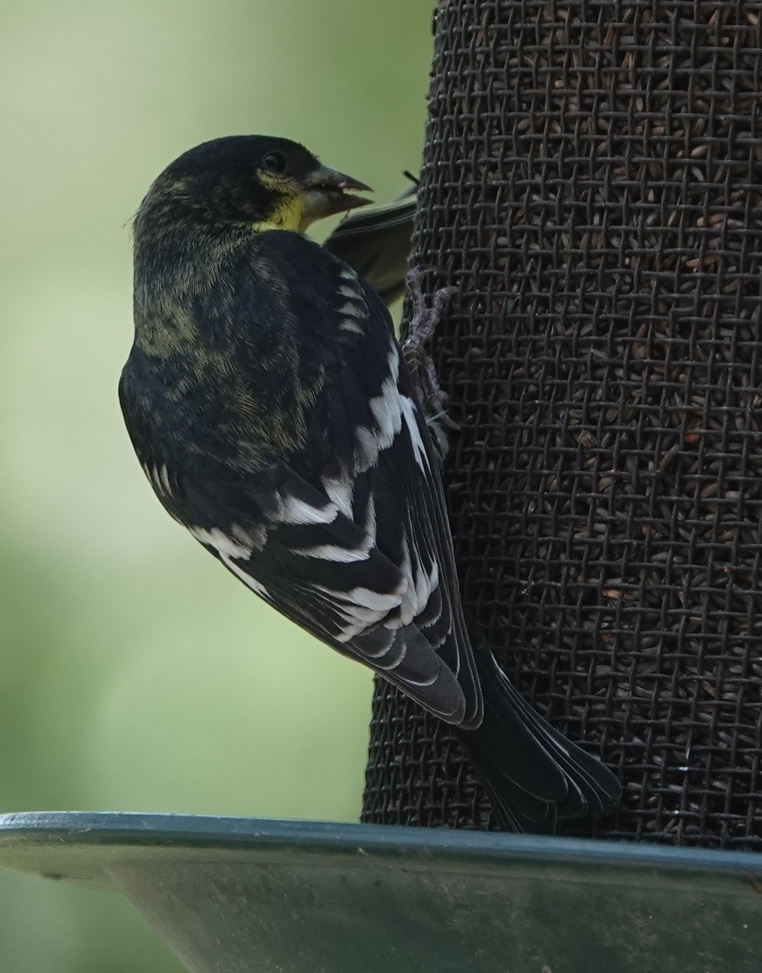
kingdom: Animalia
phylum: Chordata
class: Aves
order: Passeriformes
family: Fringillidae
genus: Spinus
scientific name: Spinus psaltria
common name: Lesser goldfinch
